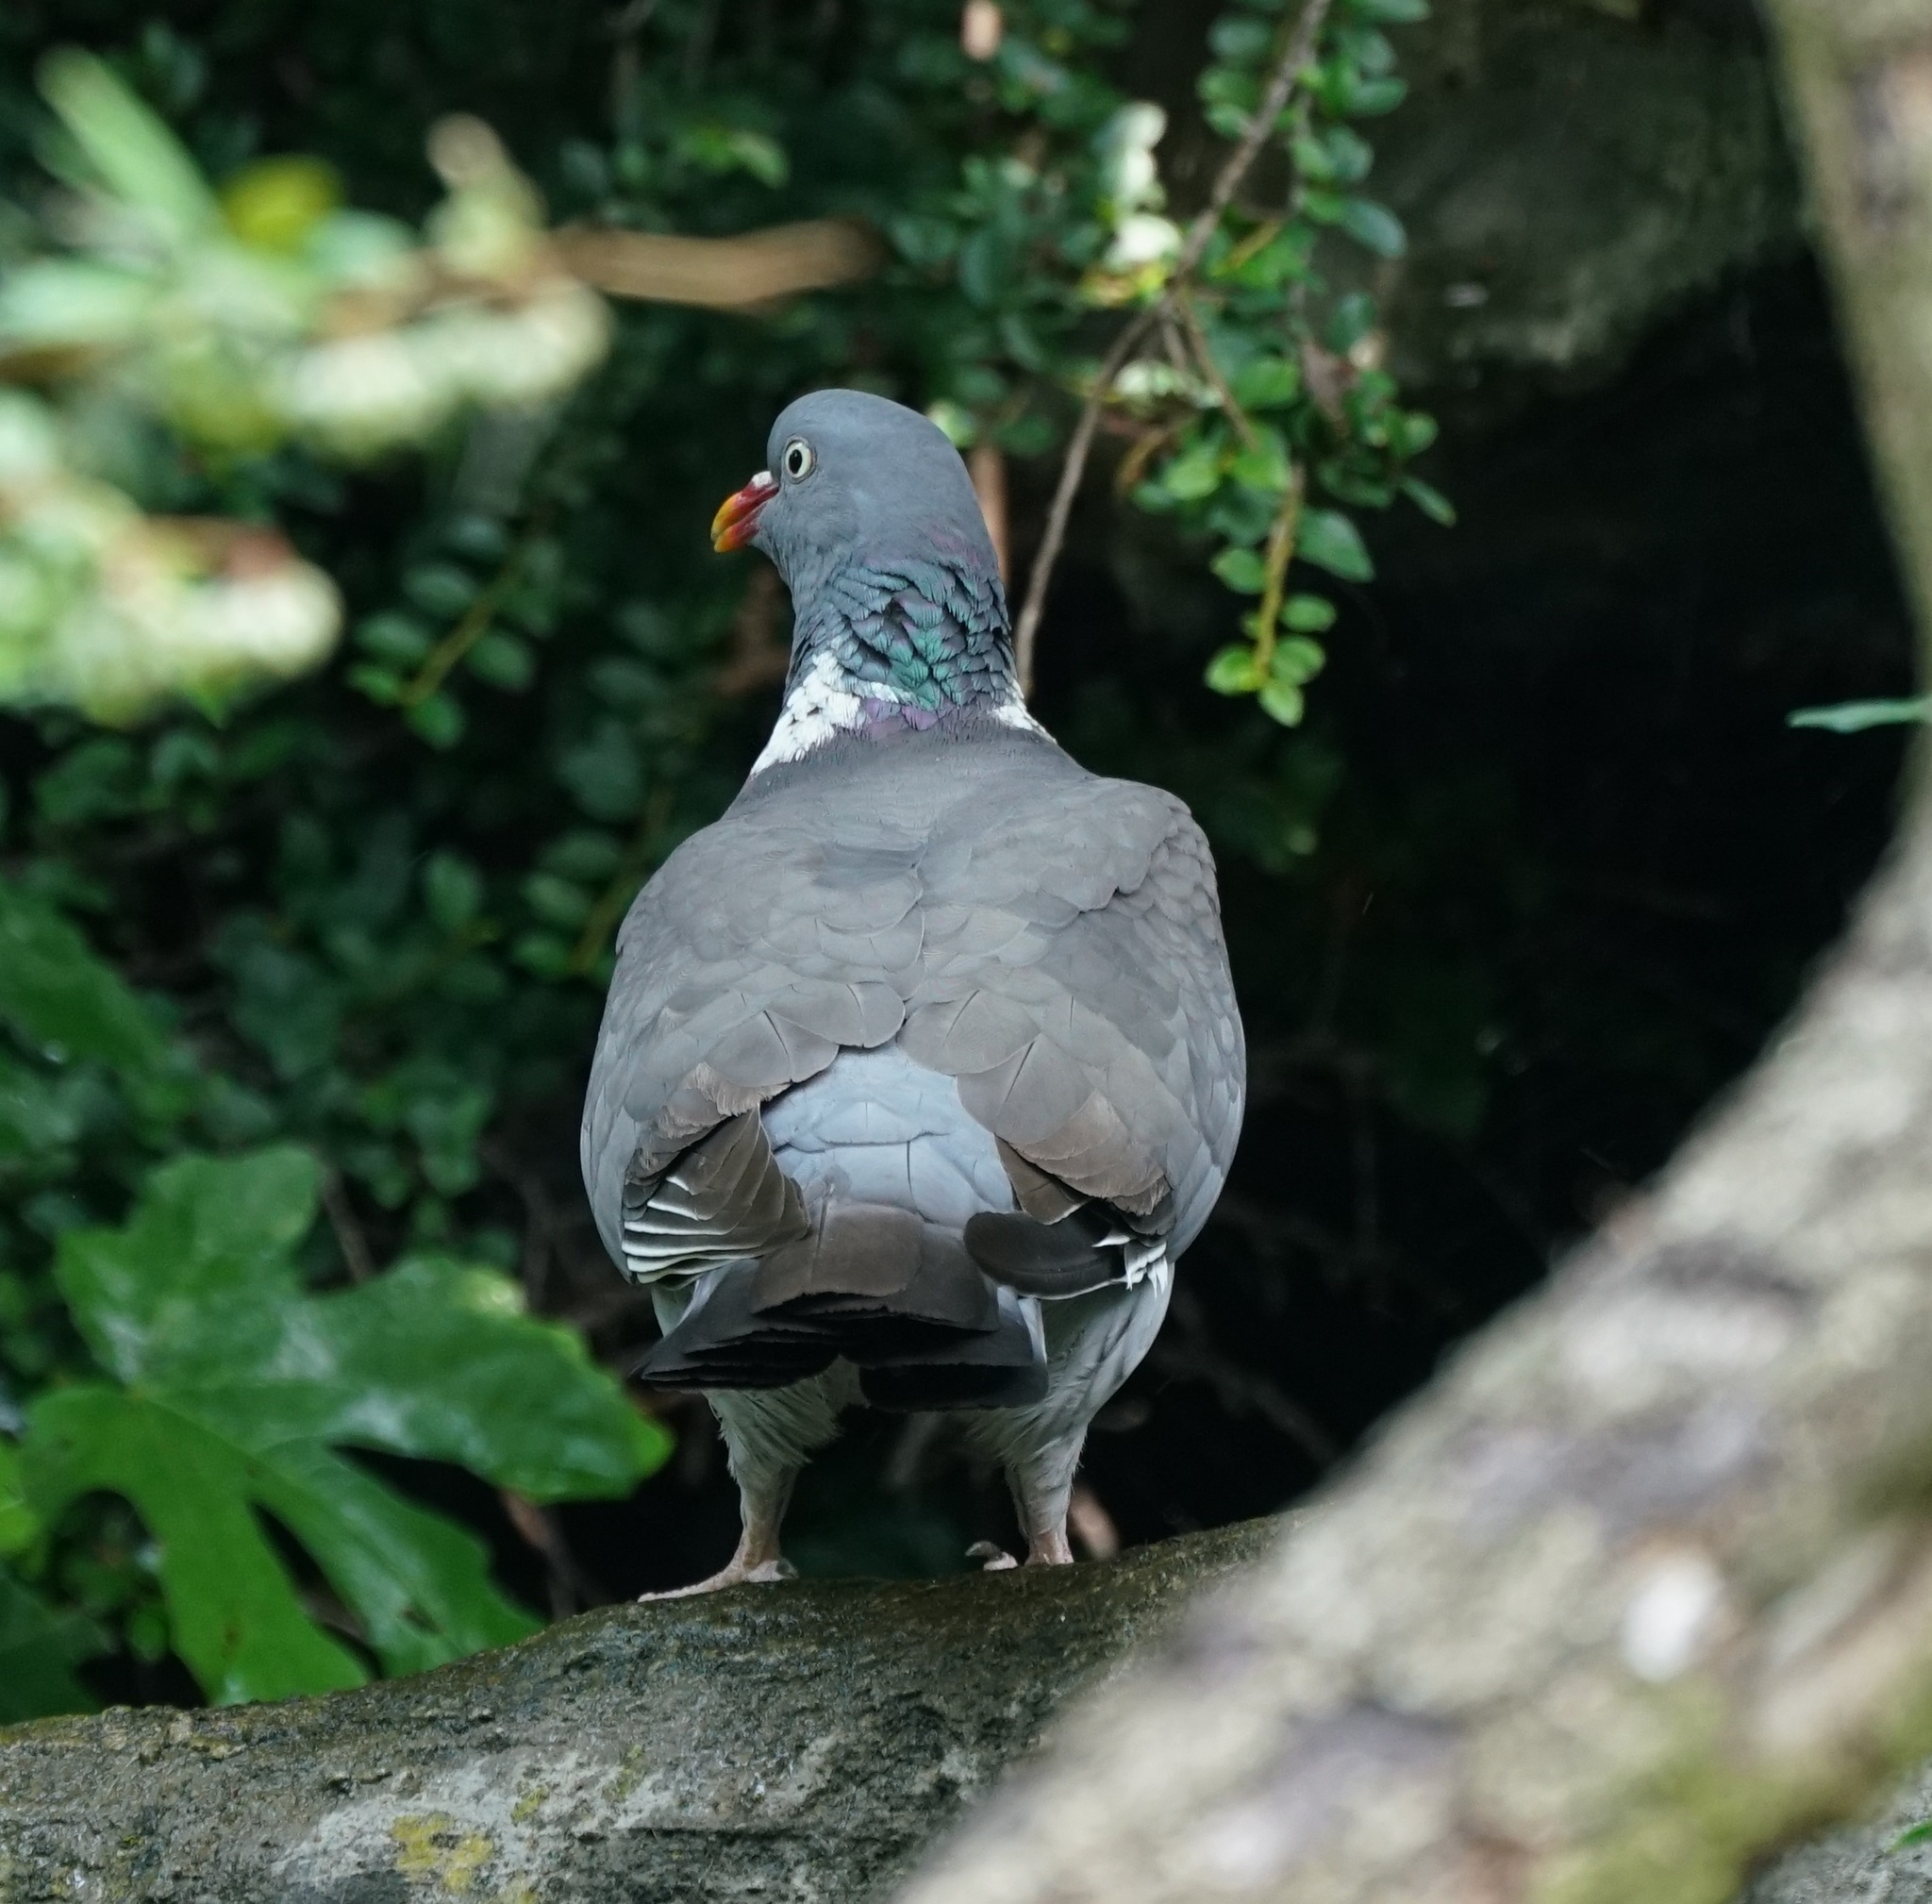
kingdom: Animalia
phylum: Chordata
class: Aves
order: Columbiformes
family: Columbidae
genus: Columba
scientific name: Columba palumbus
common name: Common wood pigeon
